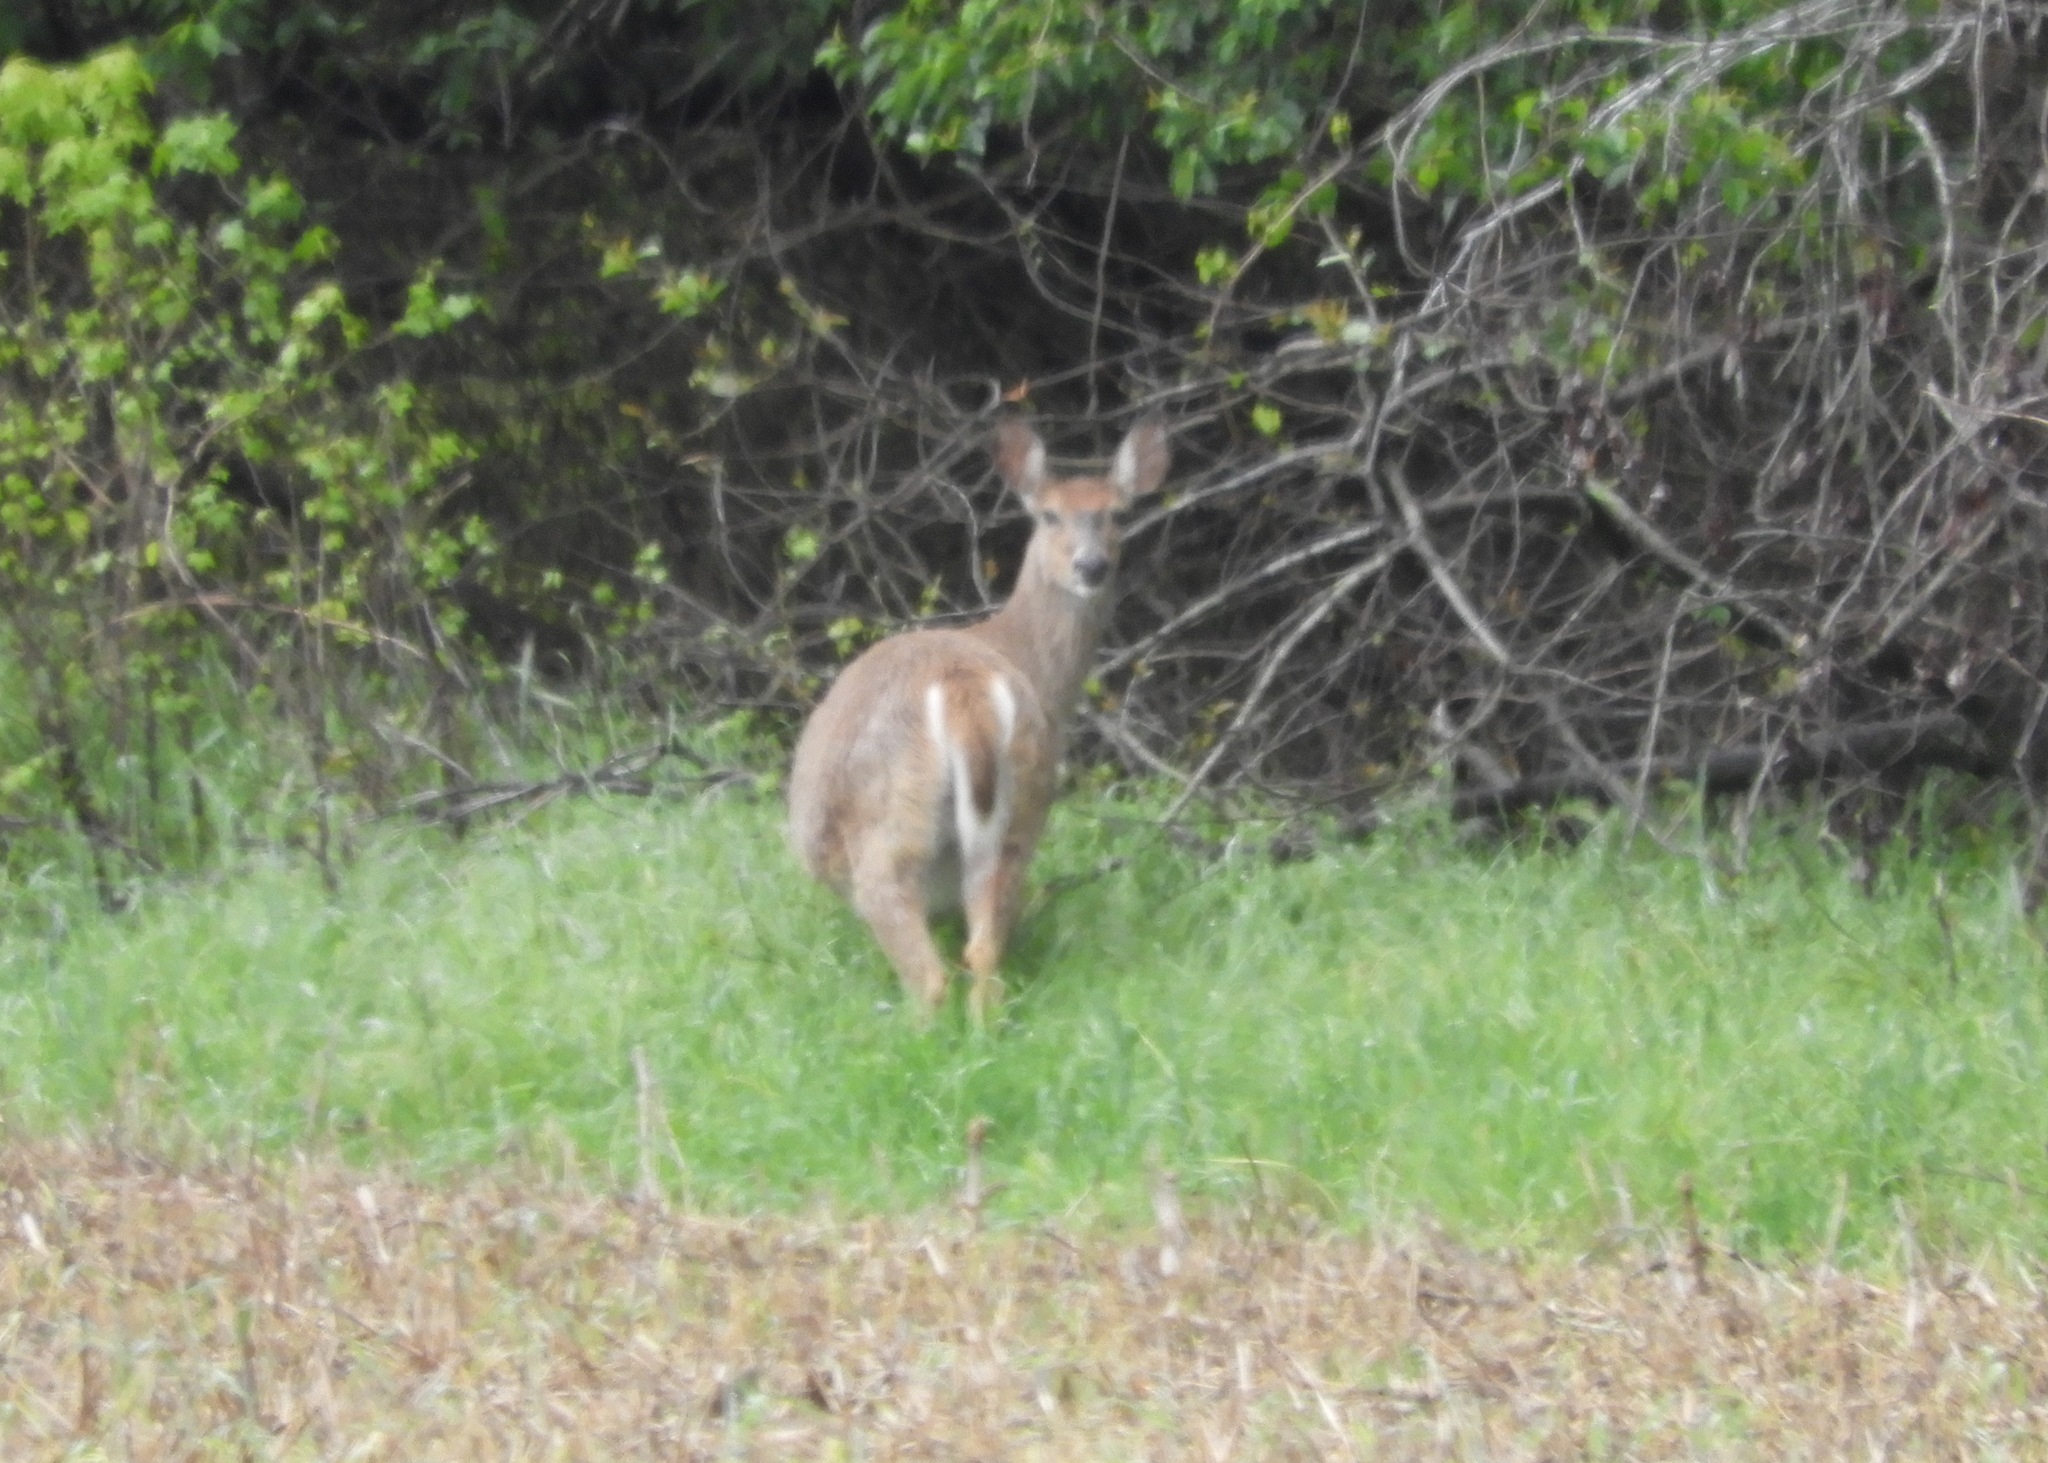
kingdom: Animalia
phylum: Chordata
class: Mammalia
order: Artiodactyla
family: Cervidae
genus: Odocoileus
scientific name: Odocoileus virginianus
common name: White-tailed deer
